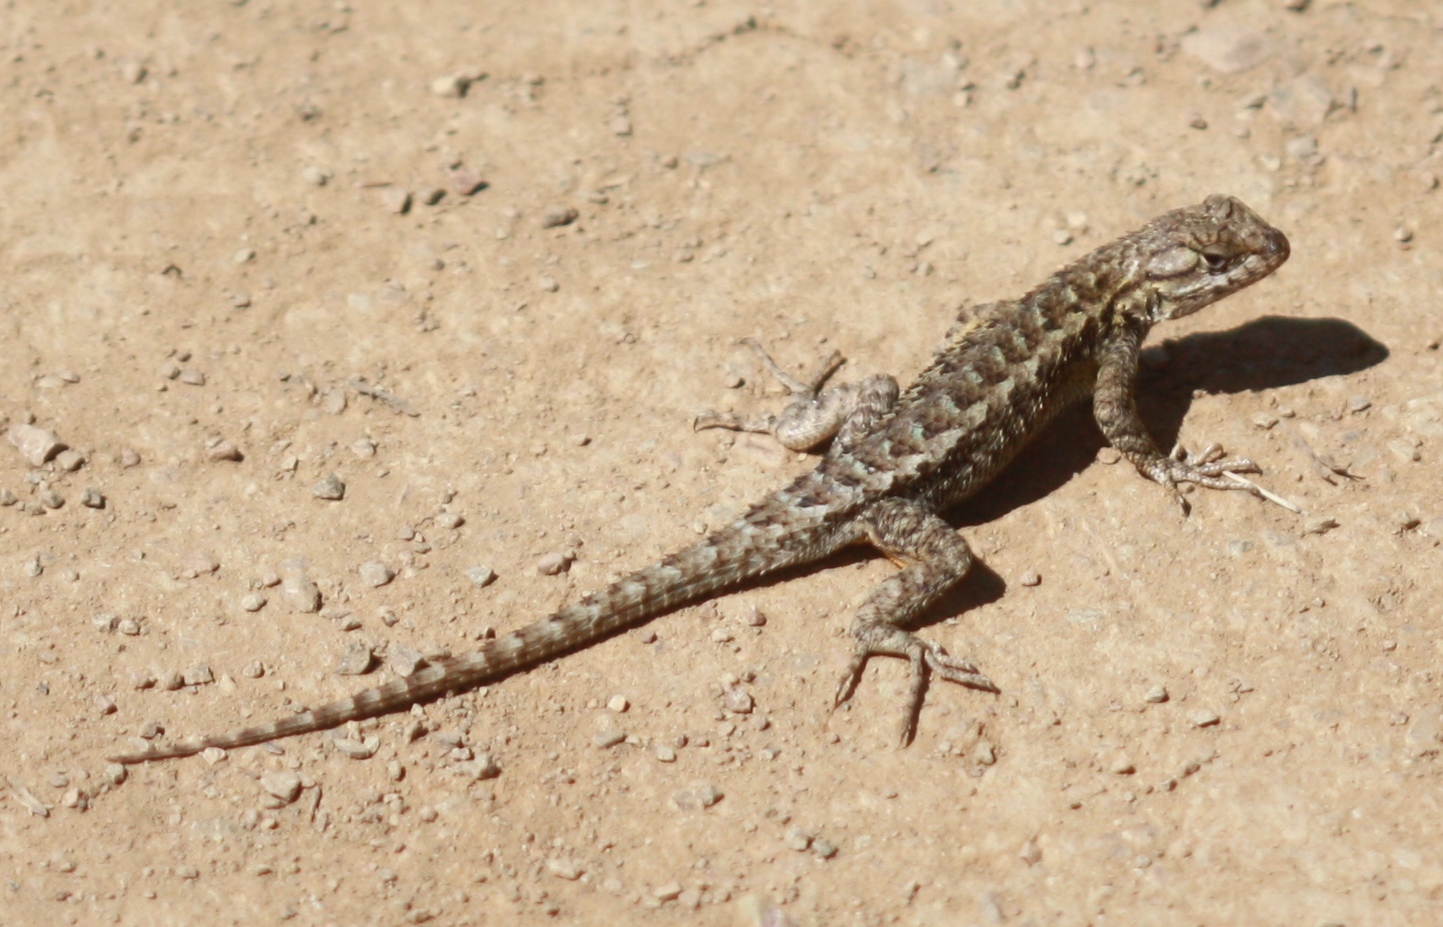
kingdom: Animalia
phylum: Chordata
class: Squamata
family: Phrynosomatidae
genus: Sceloporus
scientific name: Sceloporus occidentalis
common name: Western fence lizard
